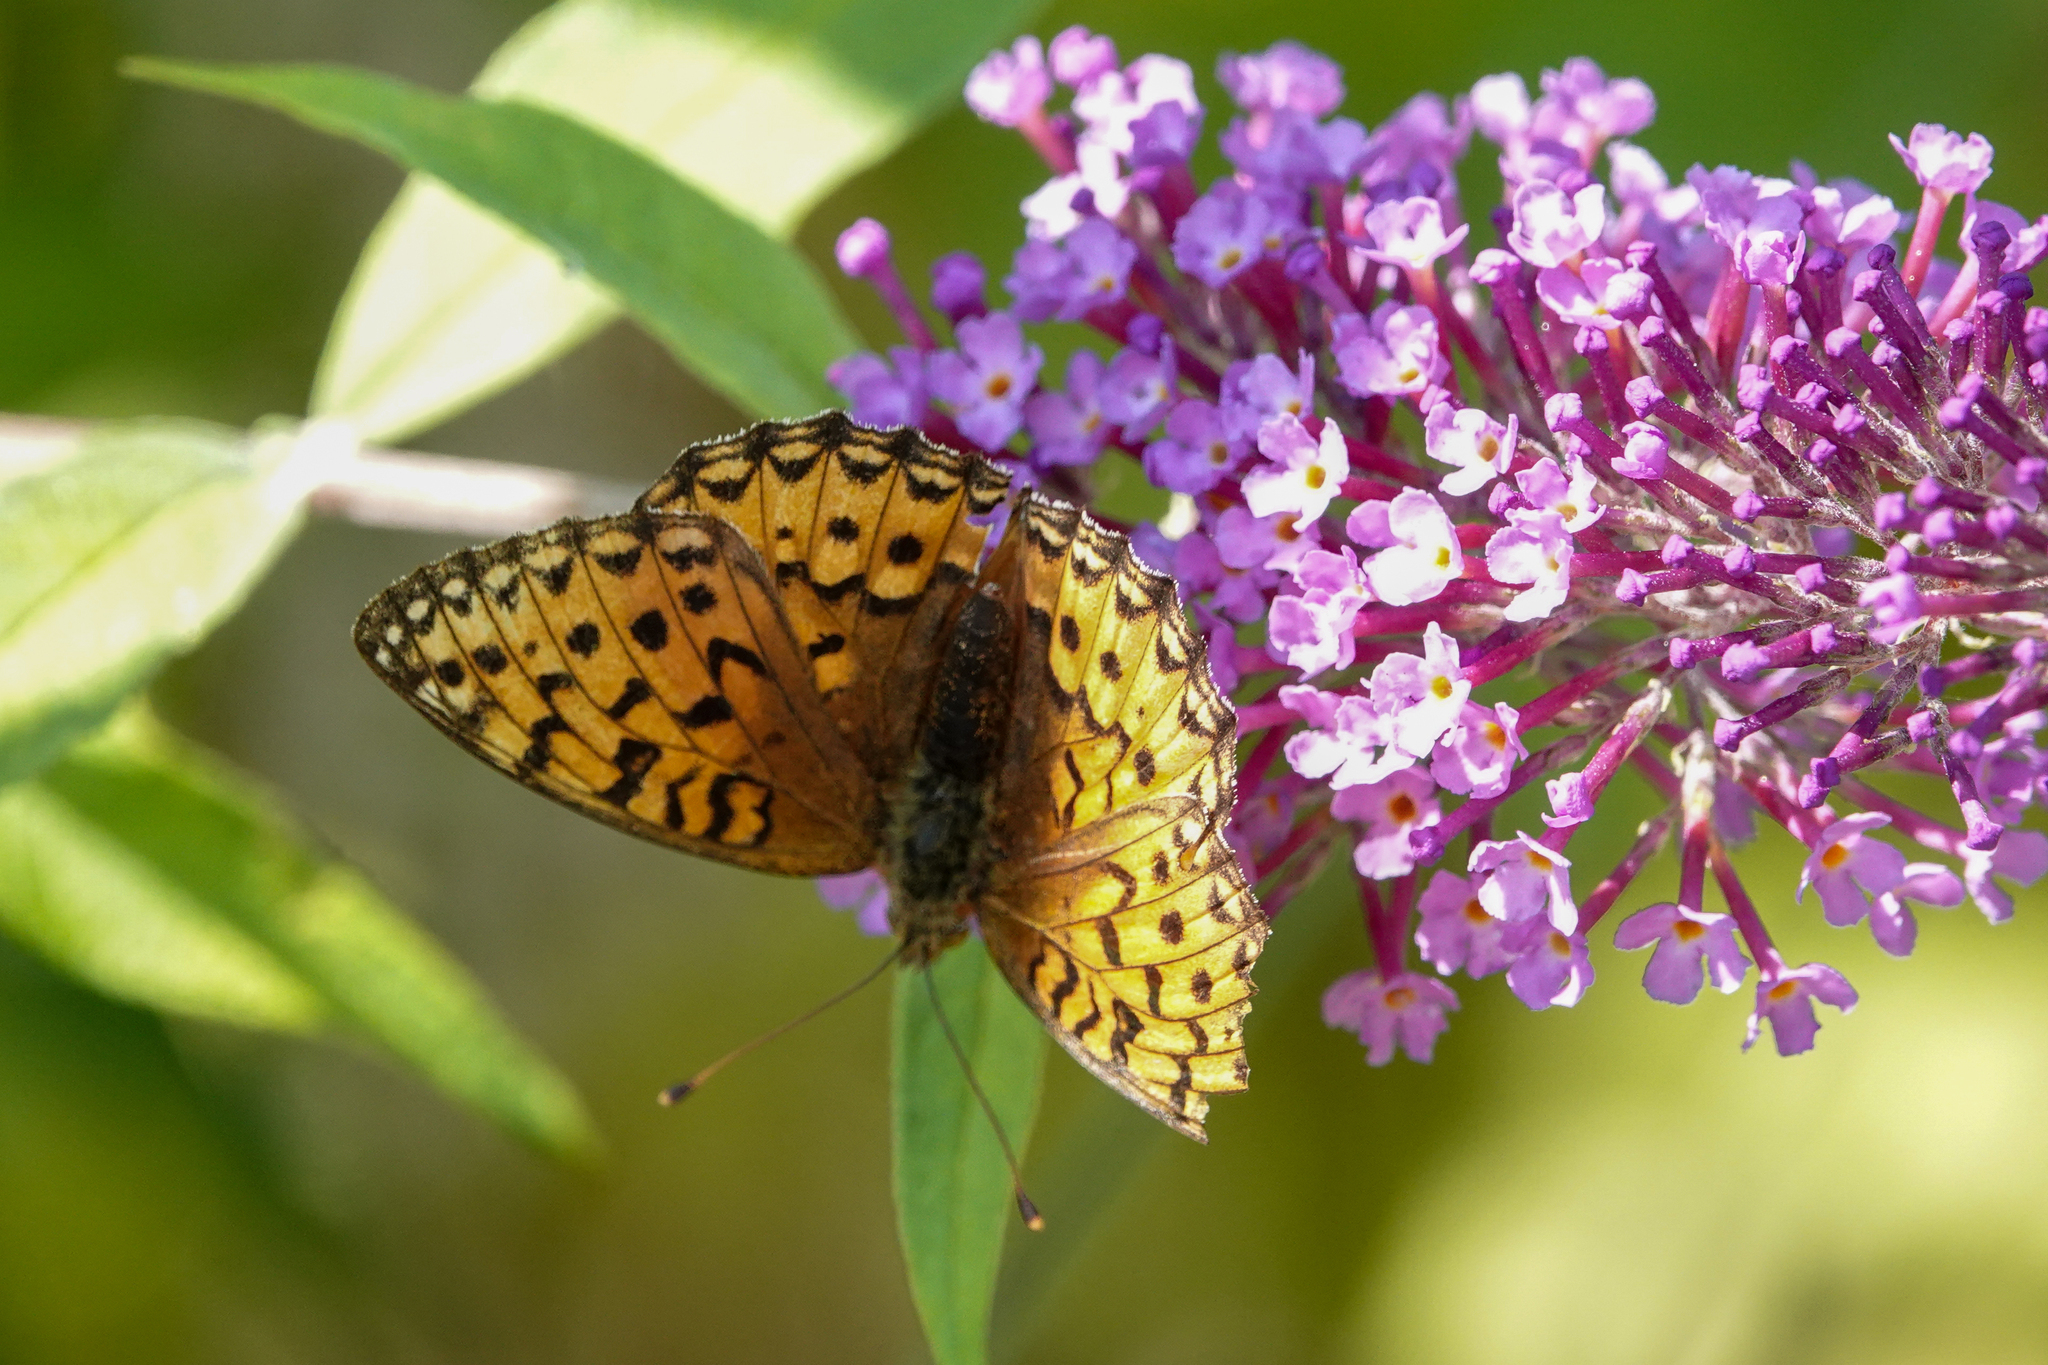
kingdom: Animalia
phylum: Arthropoda
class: Insecta
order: Lepidoptera
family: Nymphalidae
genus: Speyeria
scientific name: Speyeria aglaja
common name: Dark green fritillary
